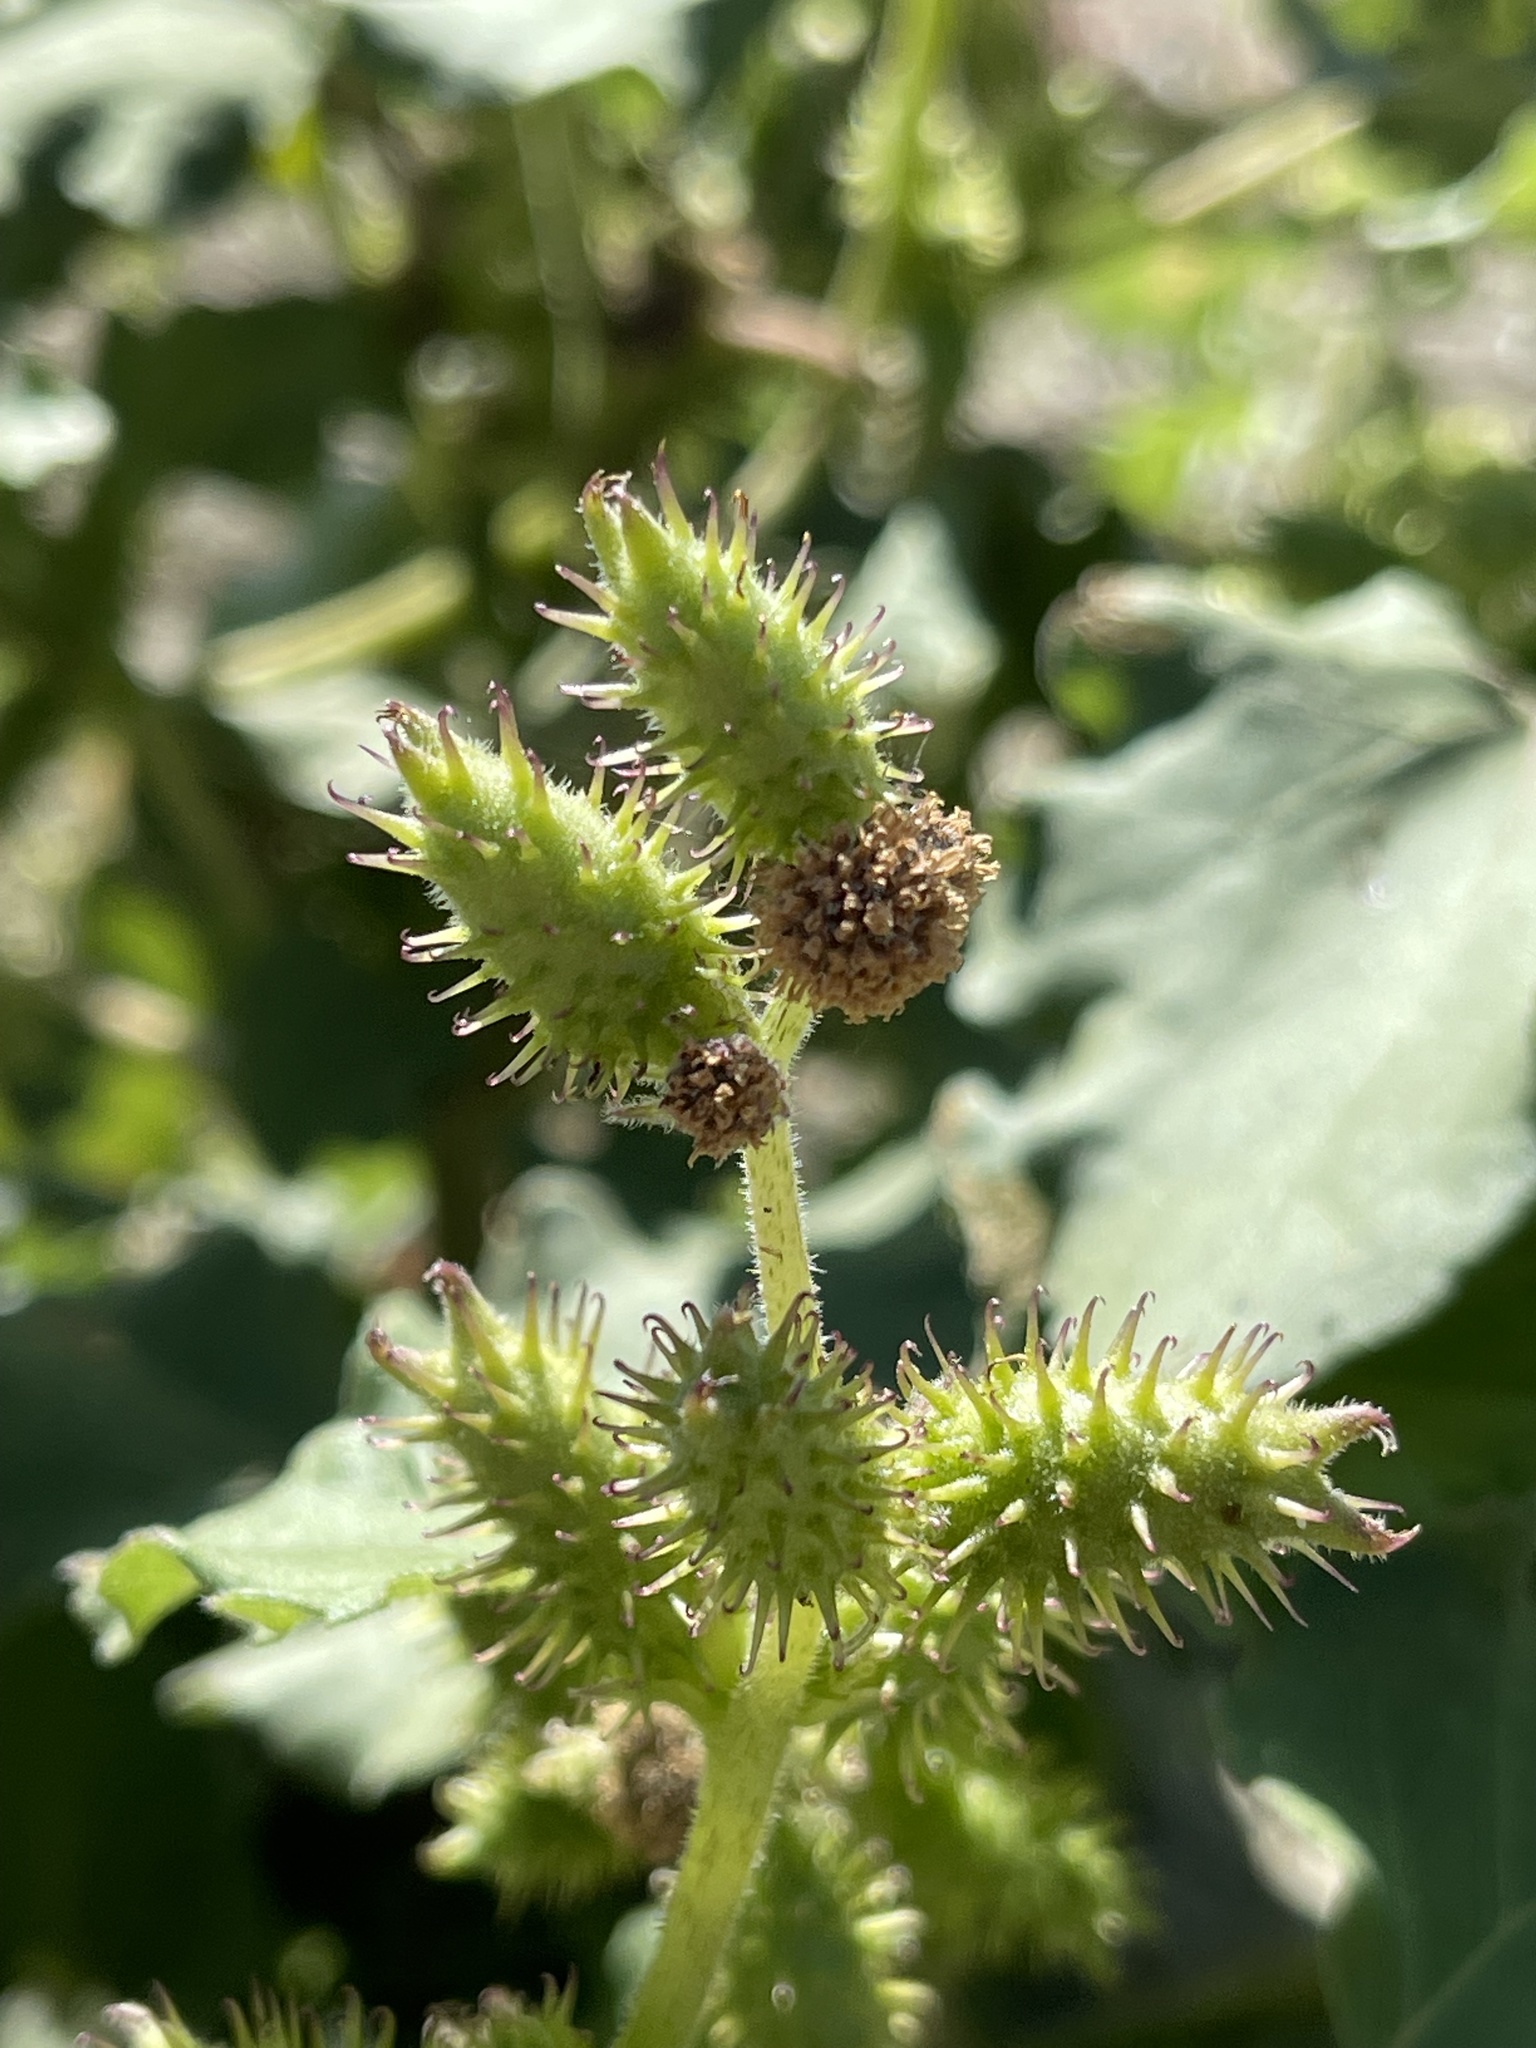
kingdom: Plantae
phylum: Tracheophyta
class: Magnoliopsida
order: Asterales
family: Asteraceae
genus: Xanthium
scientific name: Xanthium strumarium
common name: Rough cocklebur
